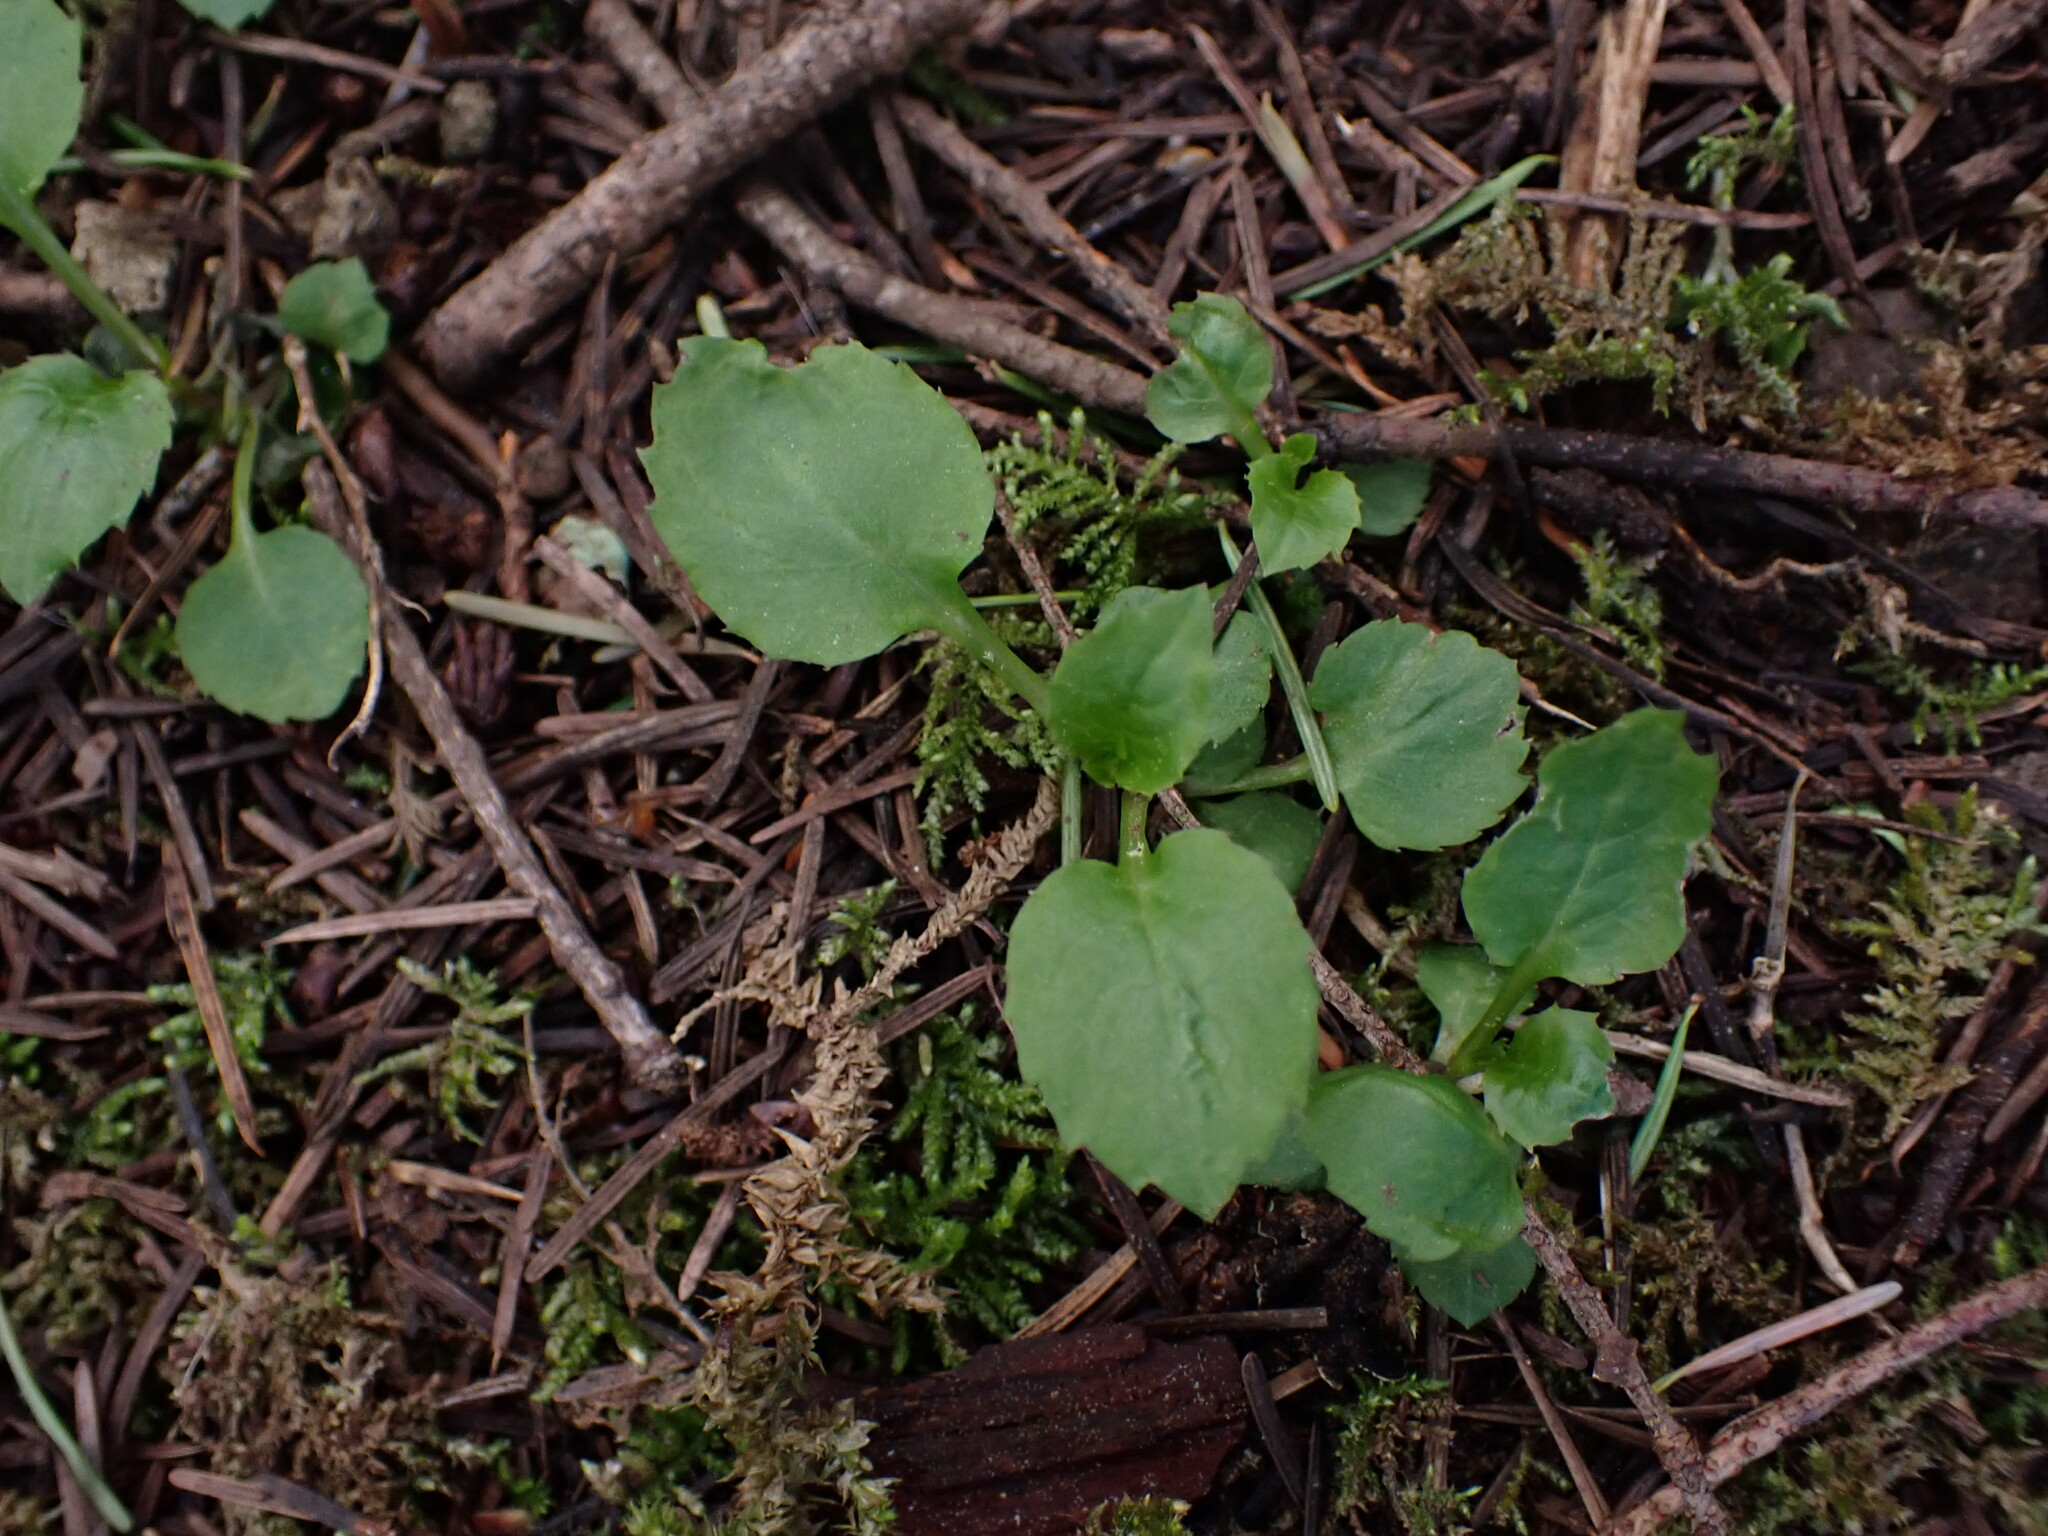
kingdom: Plantae
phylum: Tracheophyta
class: Magnoliopsida
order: Asterales
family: Campanulaceae
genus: Campanula
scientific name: Campanula scouleri
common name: Scouler's harebell
